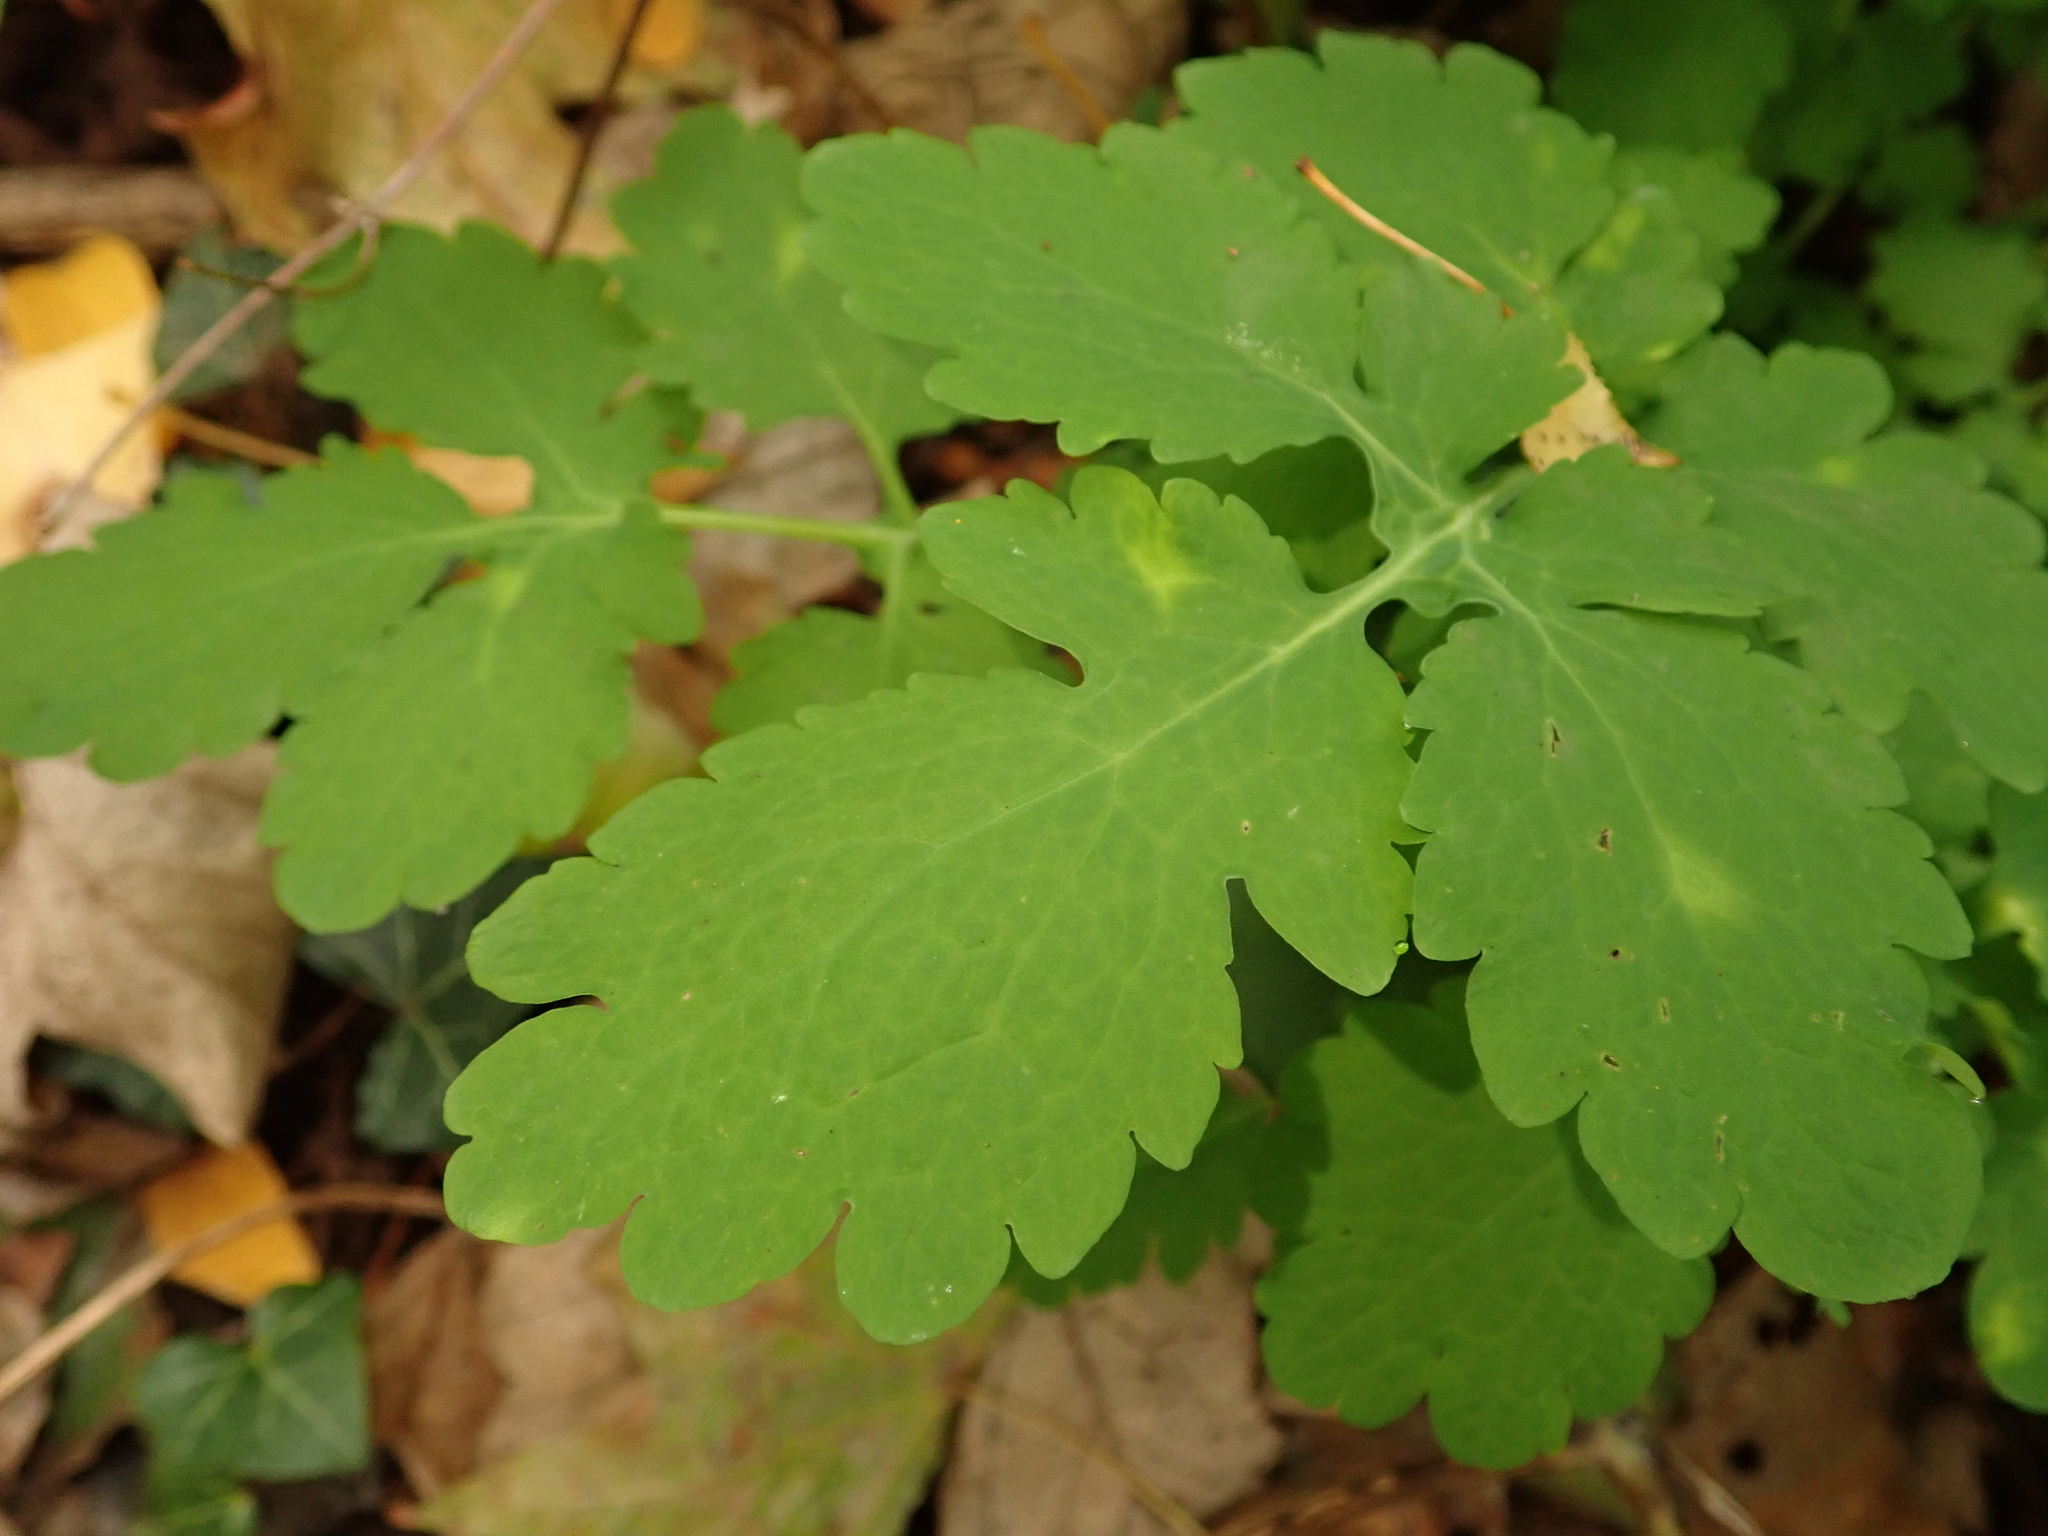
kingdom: Plantae
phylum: Tracheophyta
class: Magnoliopsida
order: Ranunculales
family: Papaveraceae
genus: Chelidonium
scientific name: Chelidonium majus
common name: Greater celandine
